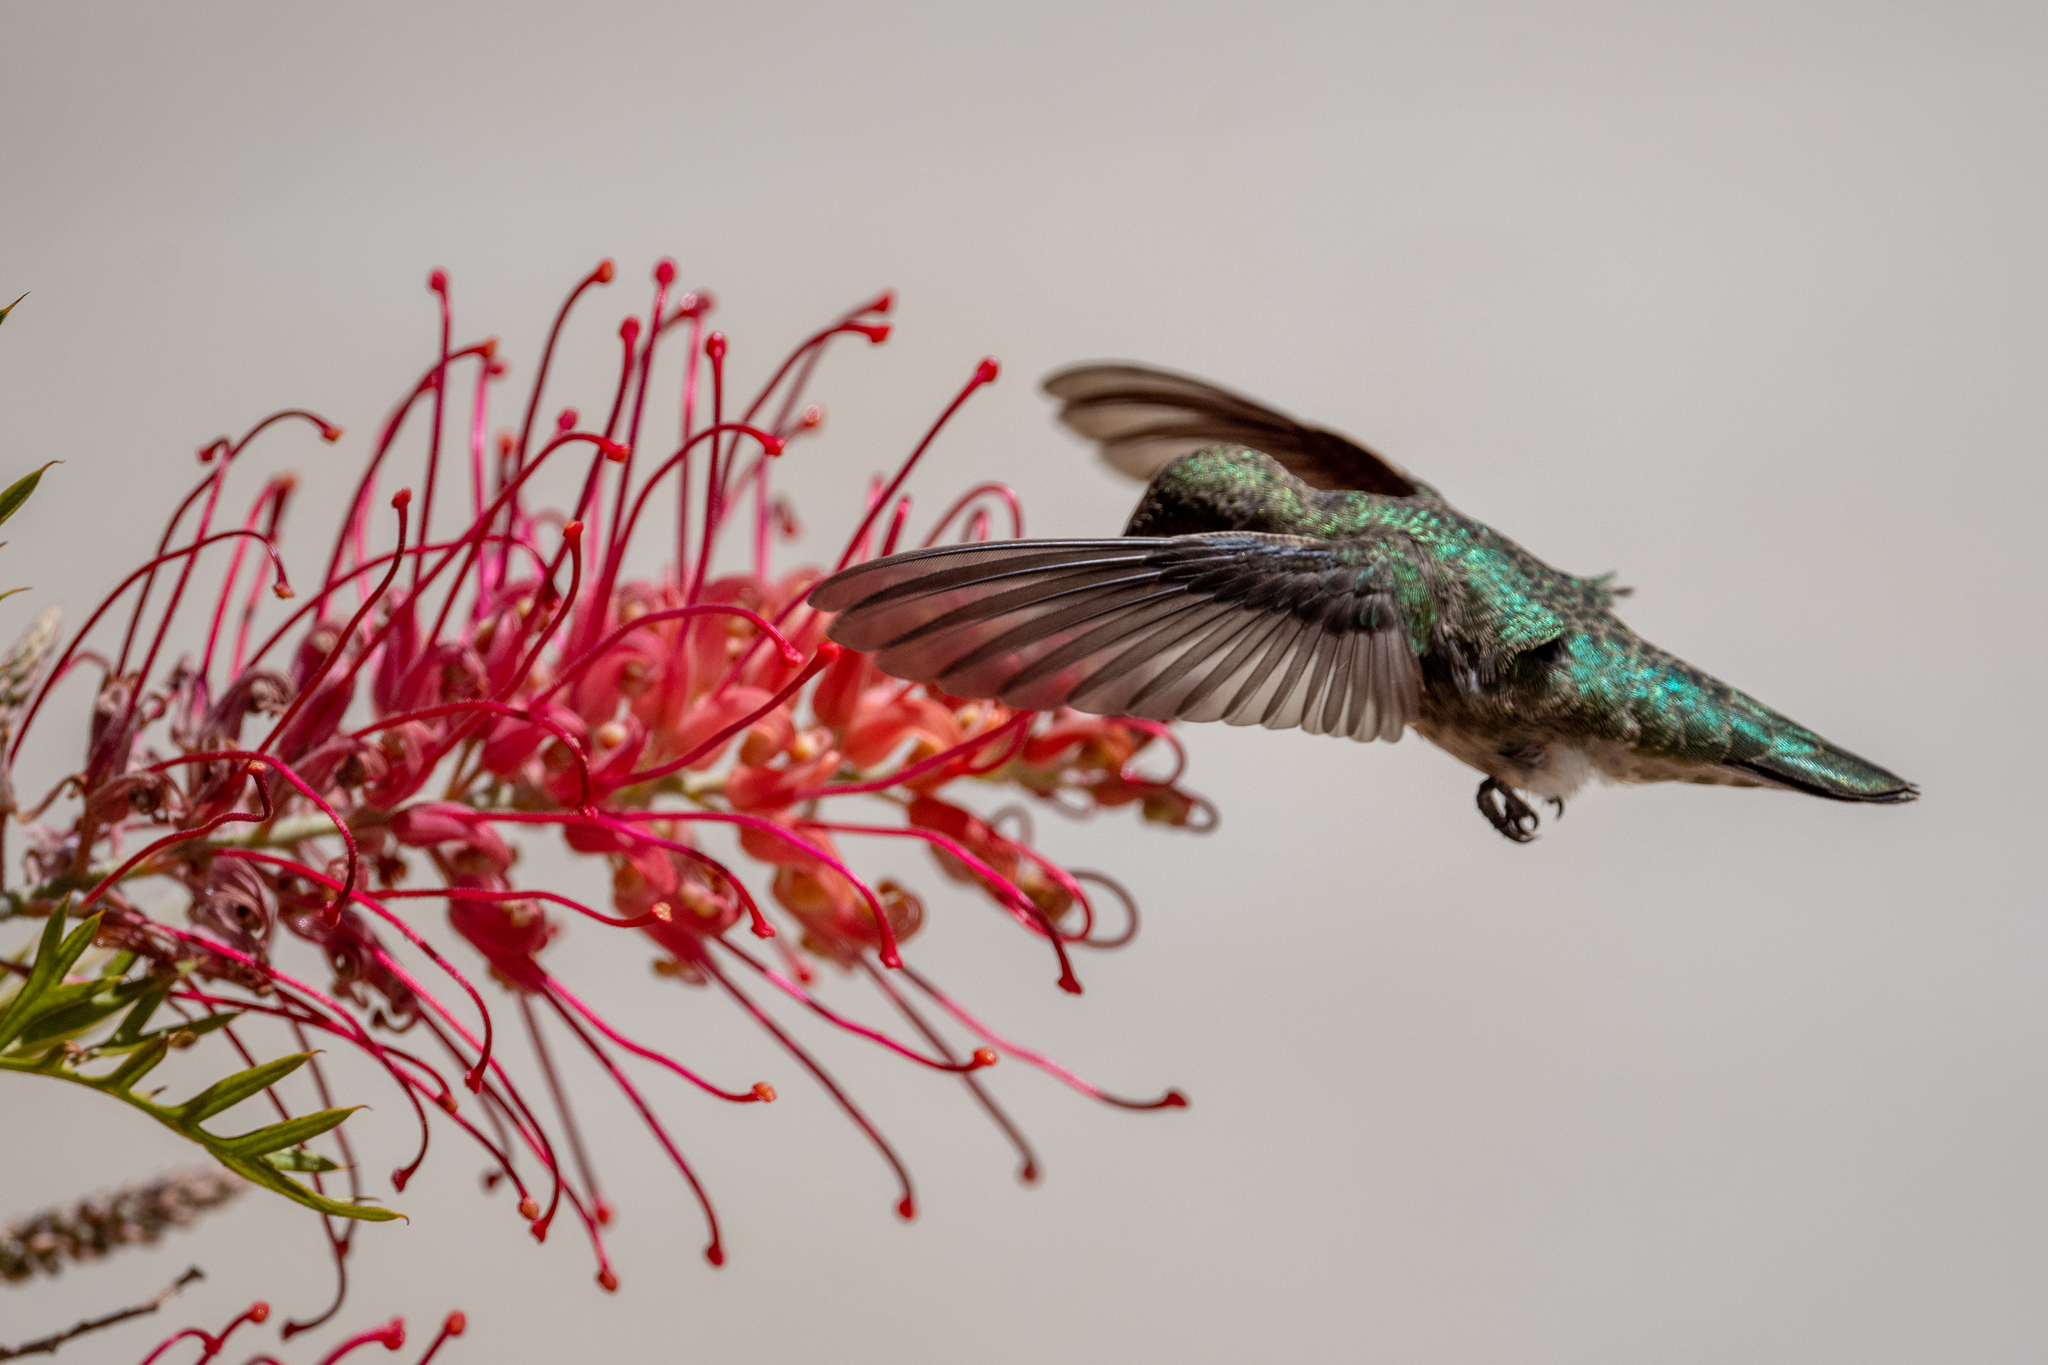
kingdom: Animalia
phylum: Chordata
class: Aves
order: Apodiformes
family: Trochilidae
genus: Calypte
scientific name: Calypte anna
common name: Anna's hummingbird
